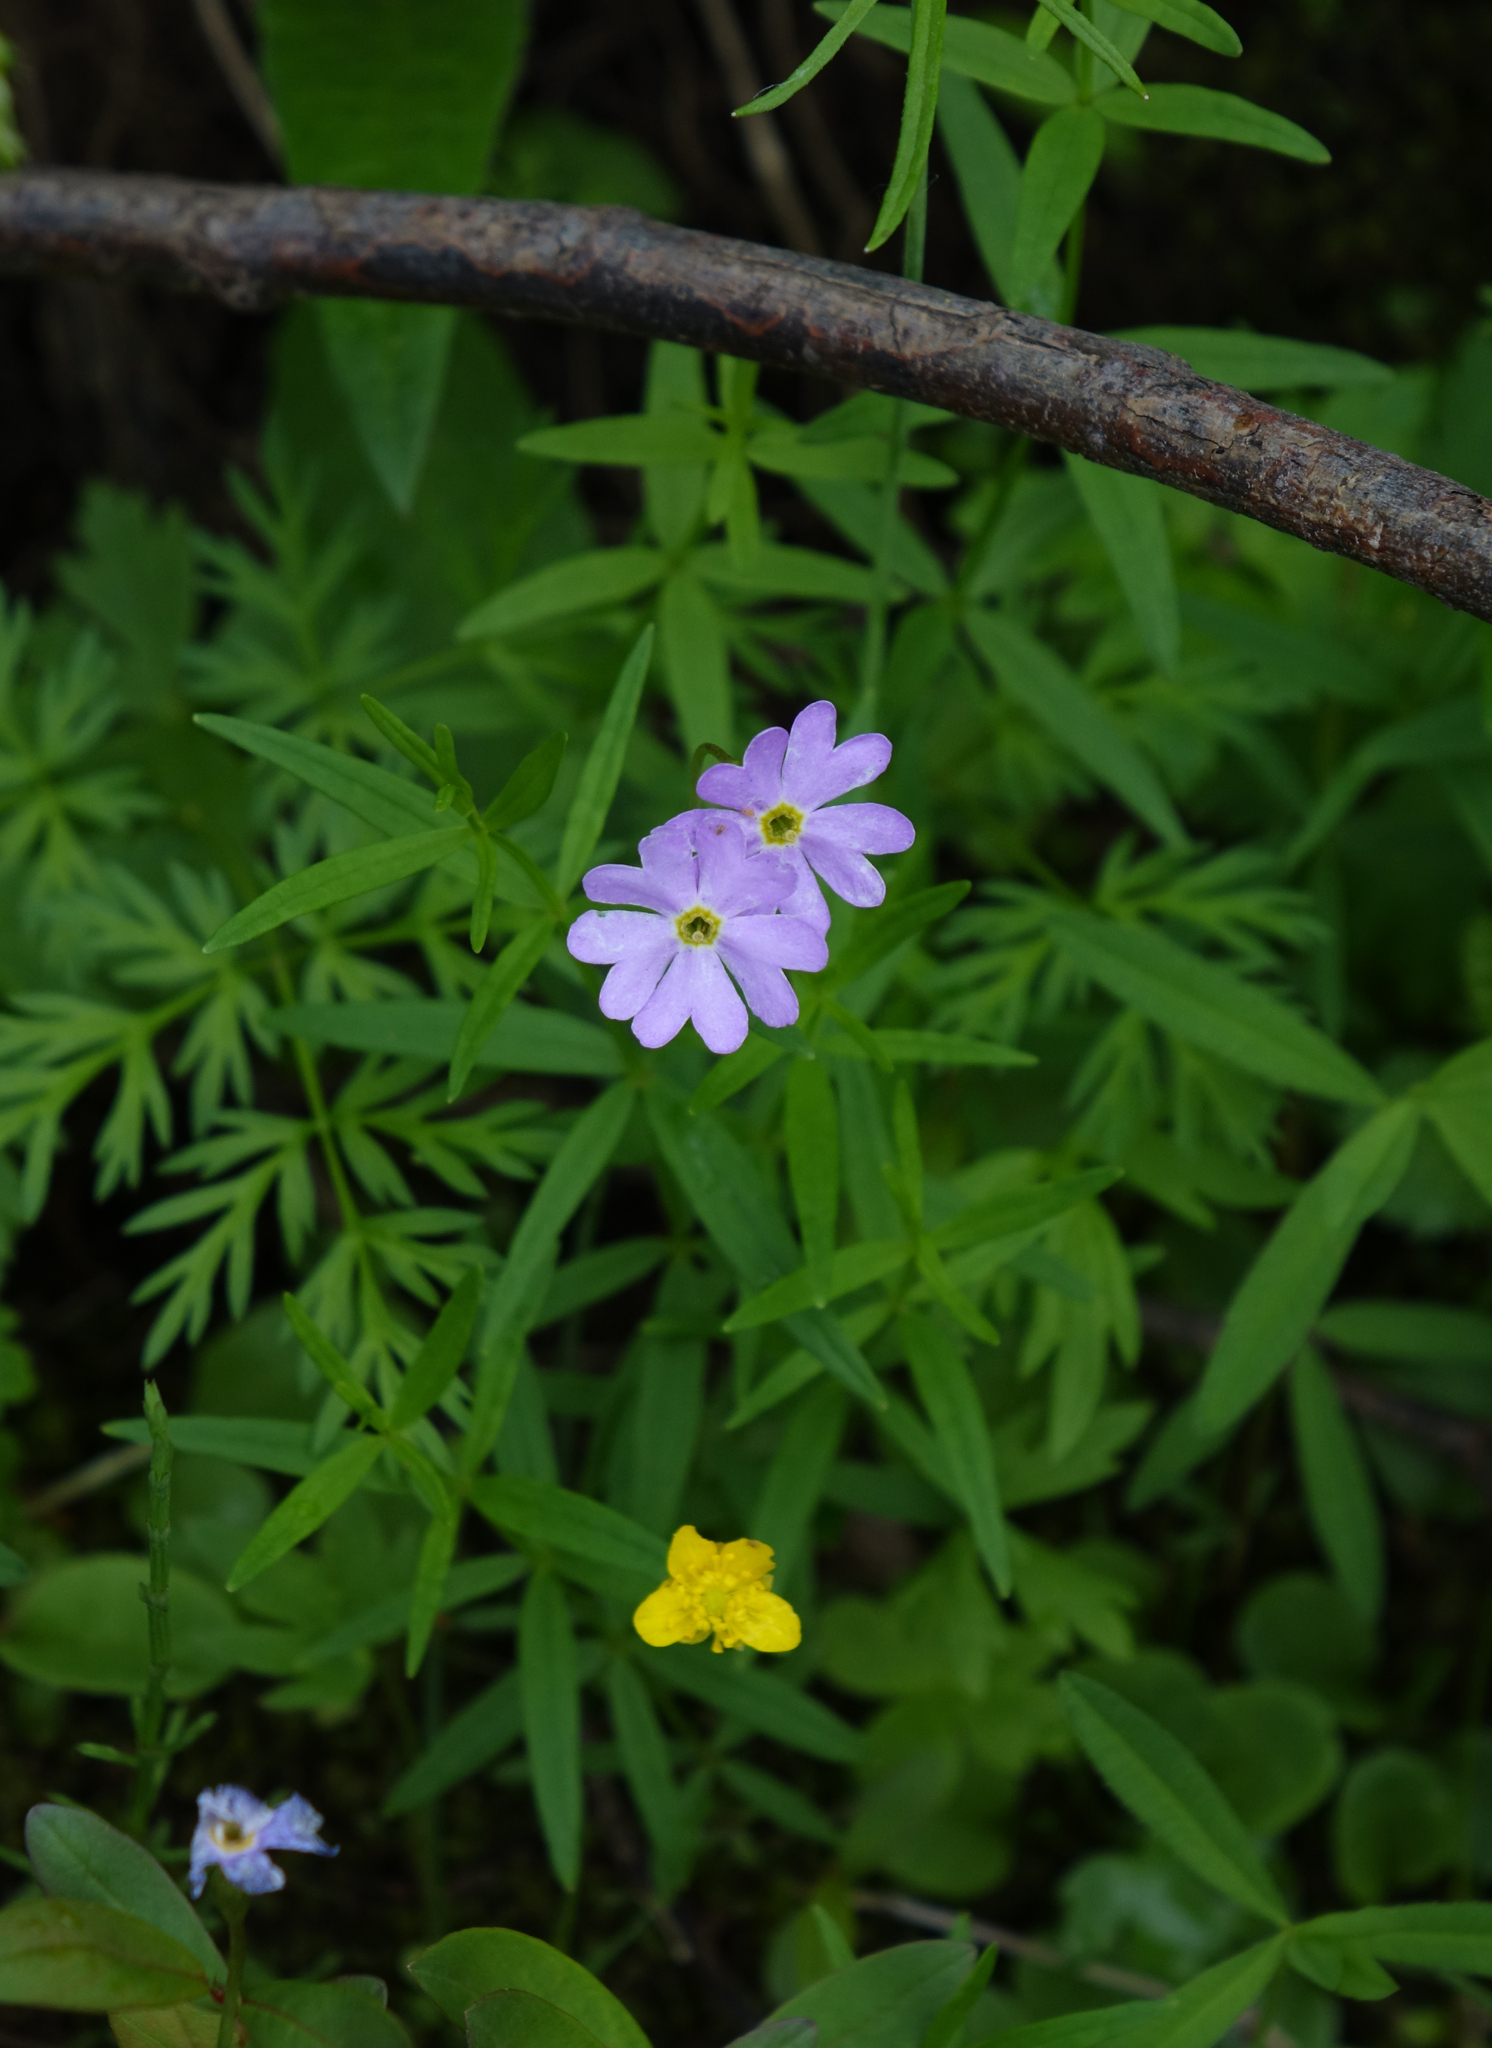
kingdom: Plantae
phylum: Tracheophyta
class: Magnoliopsida
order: Ericales
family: Primulaceae
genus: Primula
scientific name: Primula nutans
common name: Siberian primrose
